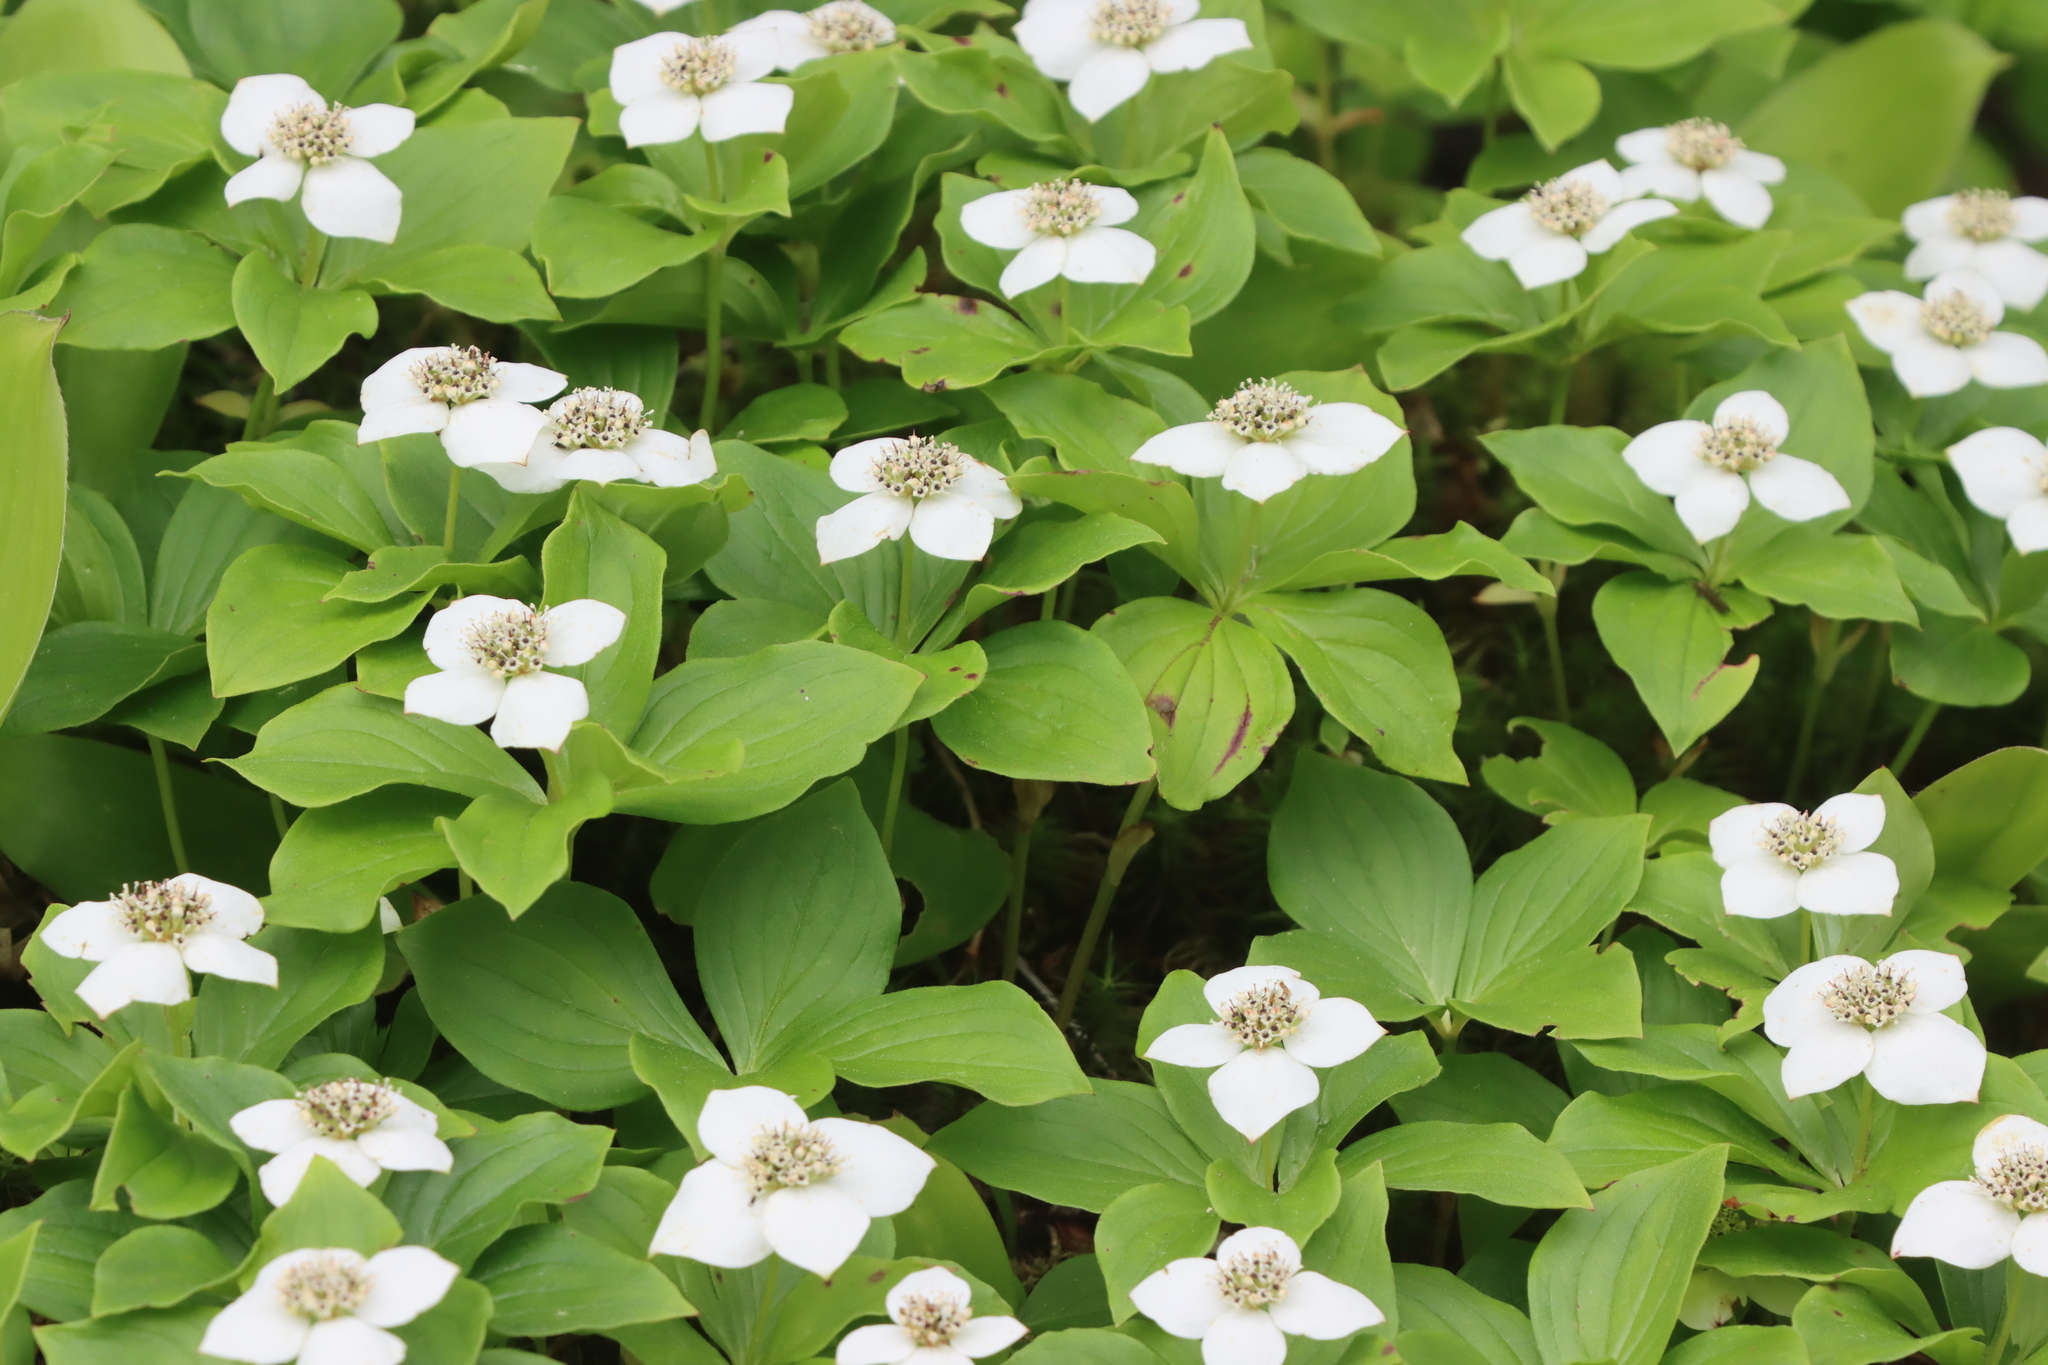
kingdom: Plantae
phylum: Tracheophyta
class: Magnoliopsida
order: Cornales
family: Cornaceae
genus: Cornus
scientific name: Cornus canadensis
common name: Creeping dogwood
